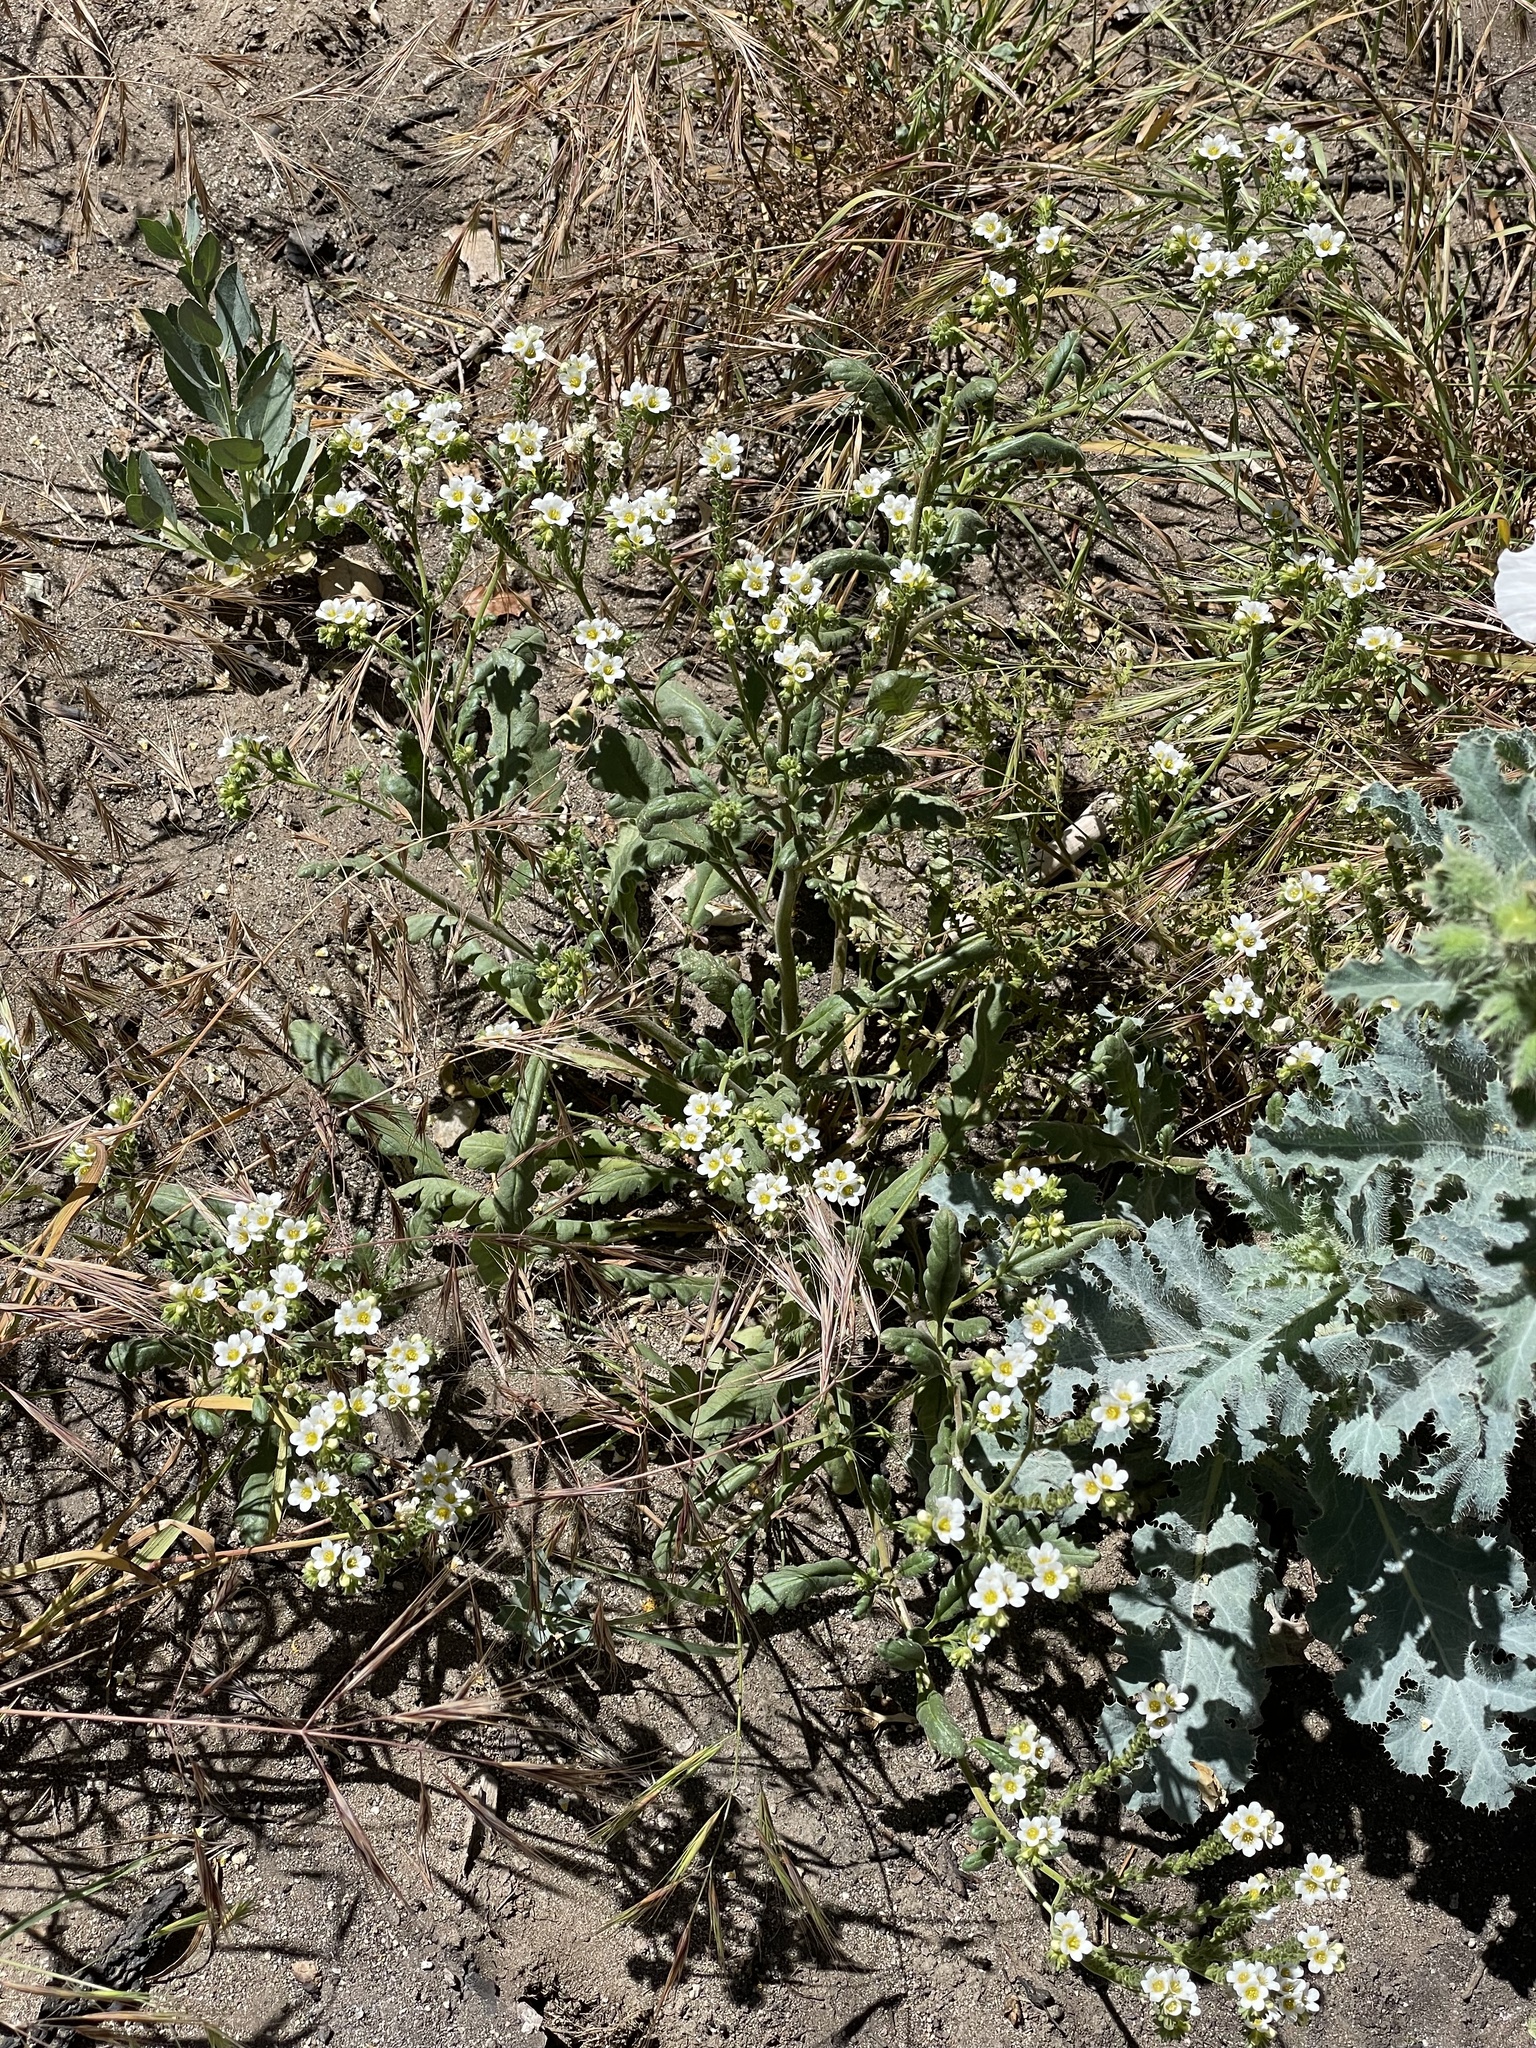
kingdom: Plantae
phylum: Tracheophyta
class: Magnoliopsida
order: Boraginales
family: Hydrophyllaceae
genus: Phacelia
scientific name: Phacelia brachyloba
